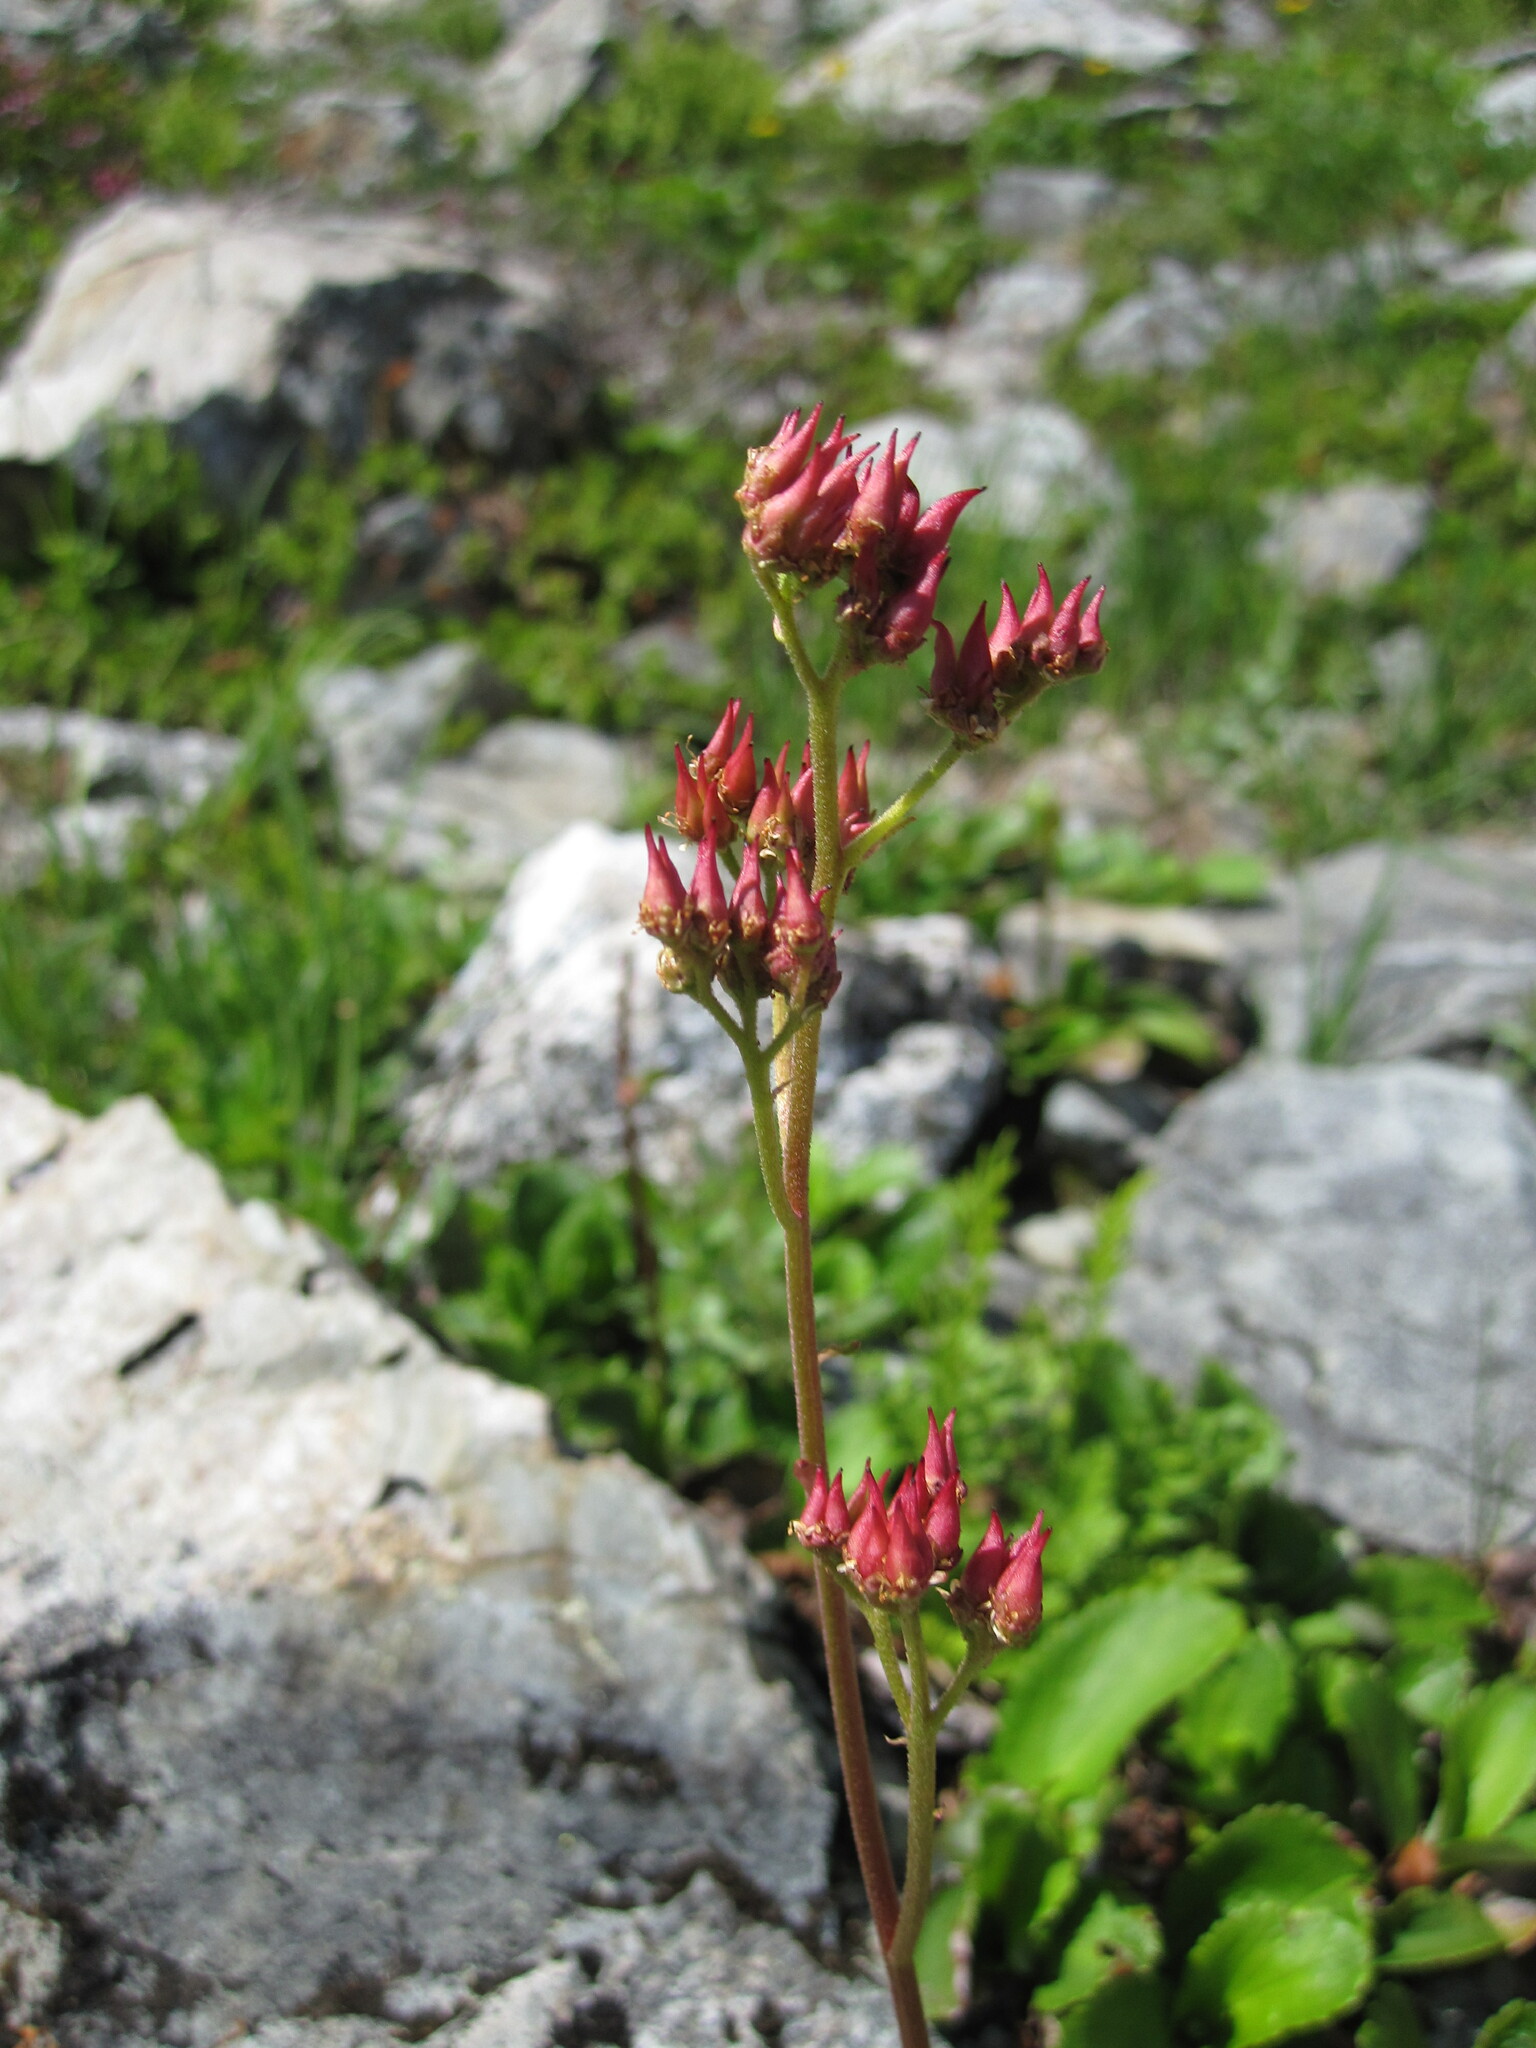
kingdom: Plantae
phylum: Tracheophyta
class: Magnoliopsida
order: Saxifragales
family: Saxifragaceae
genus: Leptarrhena
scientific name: Leptarrhena pyrolifolia
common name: Leatherleaf-saxifrage
